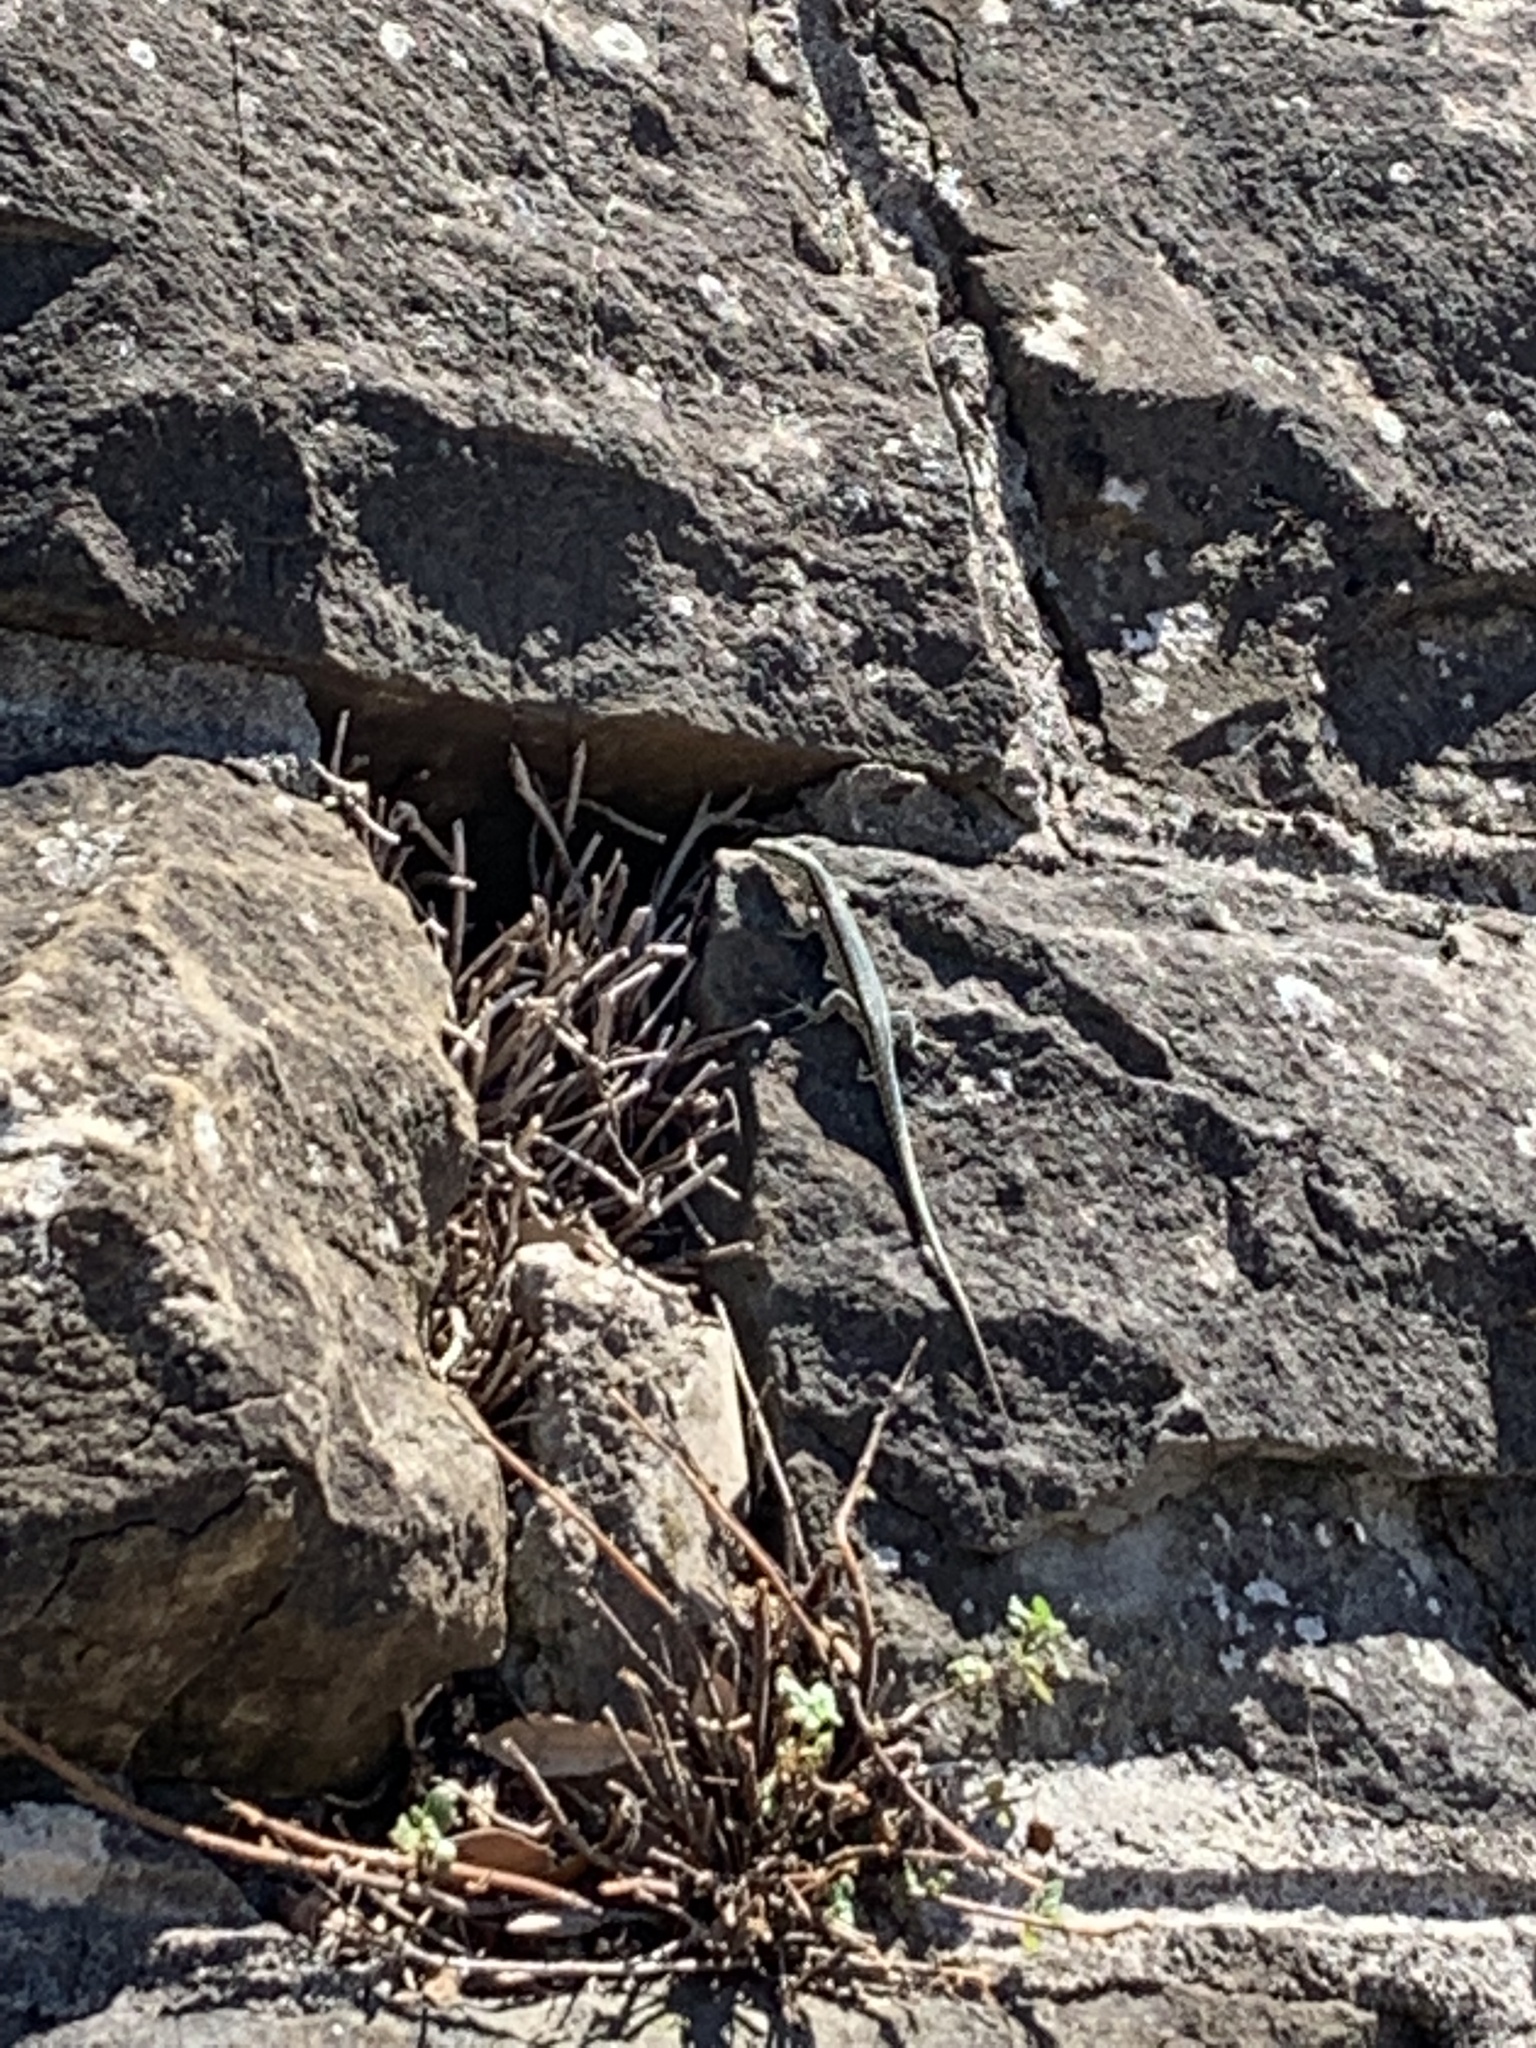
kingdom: Animalia
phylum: Chordata
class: Squamata
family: Lacertidae
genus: Podarcis
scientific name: Podarcis muralis
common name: Common wall lizard
